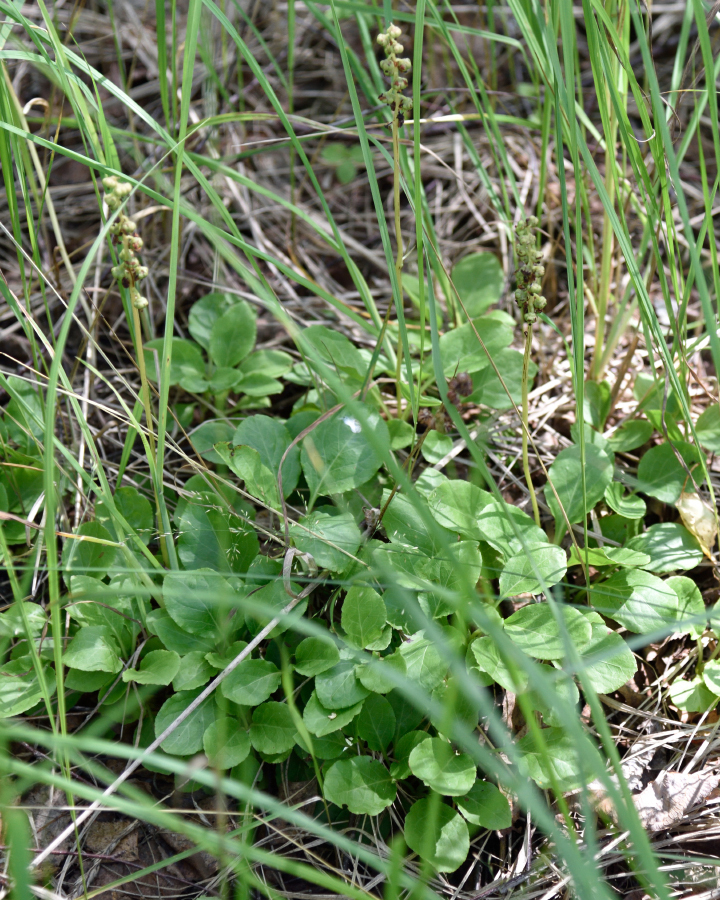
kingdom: Plantae
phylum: Tracheophyta
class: Magnoliopsida
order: Ericales
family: Ericaceae
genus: Pyrola
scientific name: Pyrola minor
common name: Common wintergreen
